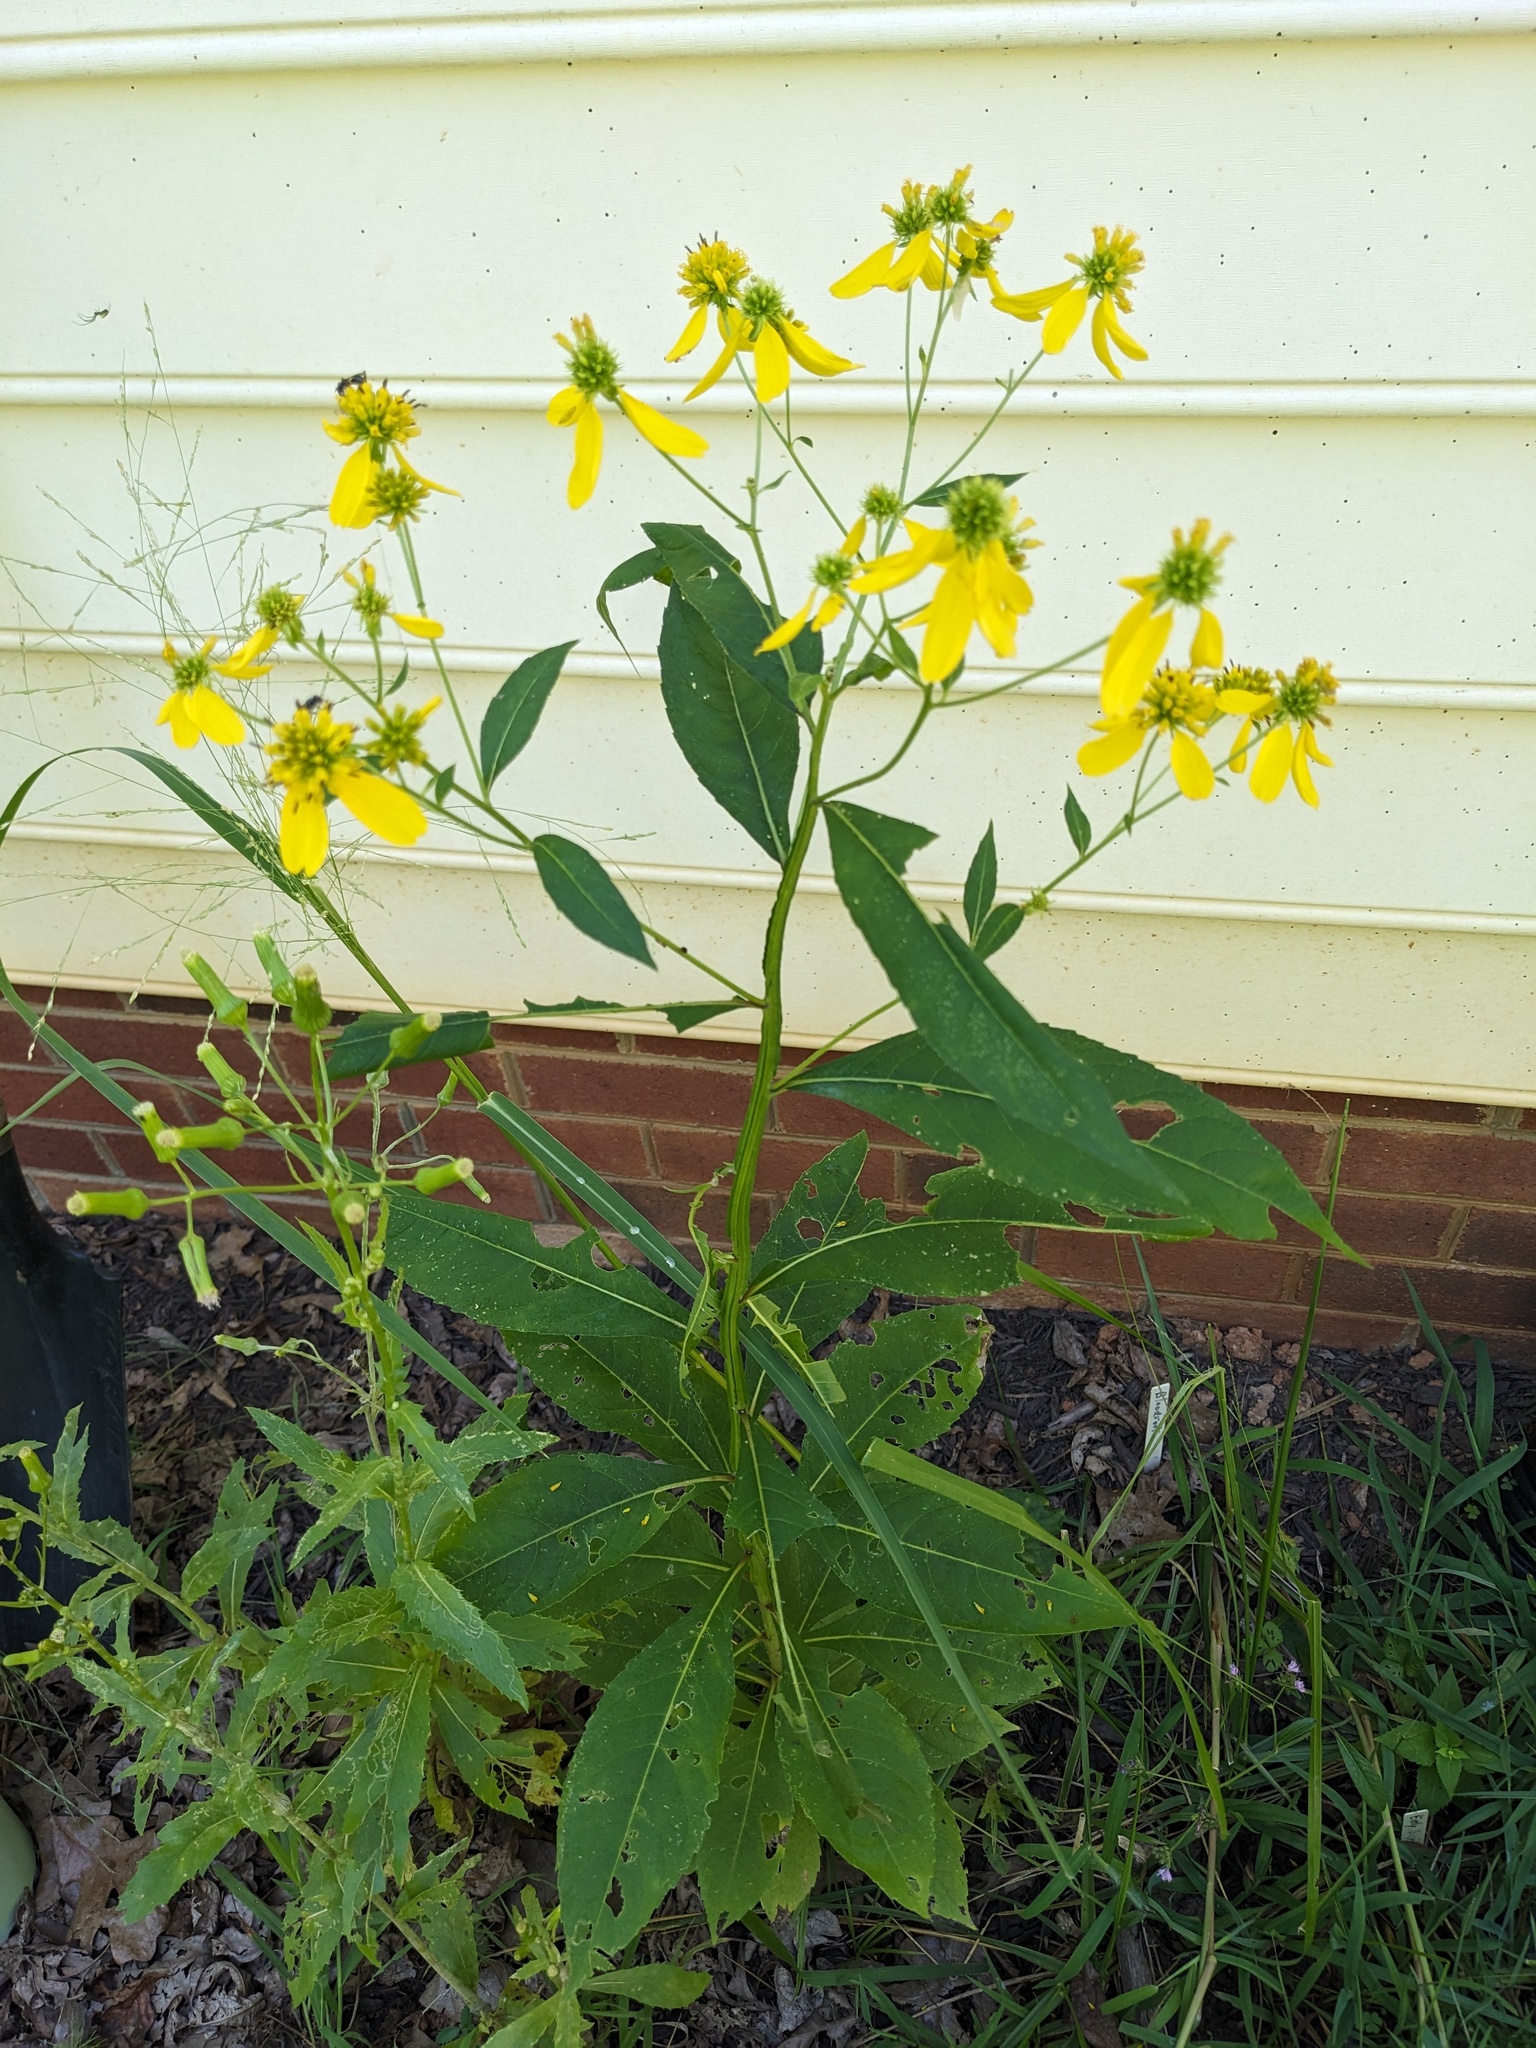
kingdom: Plantae
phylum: Tracheophyta
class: Magnoliopsida
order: Asterales
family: Asteraceae
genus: Verbesina
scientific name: Verbesina alternifolia
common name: Wingstem
